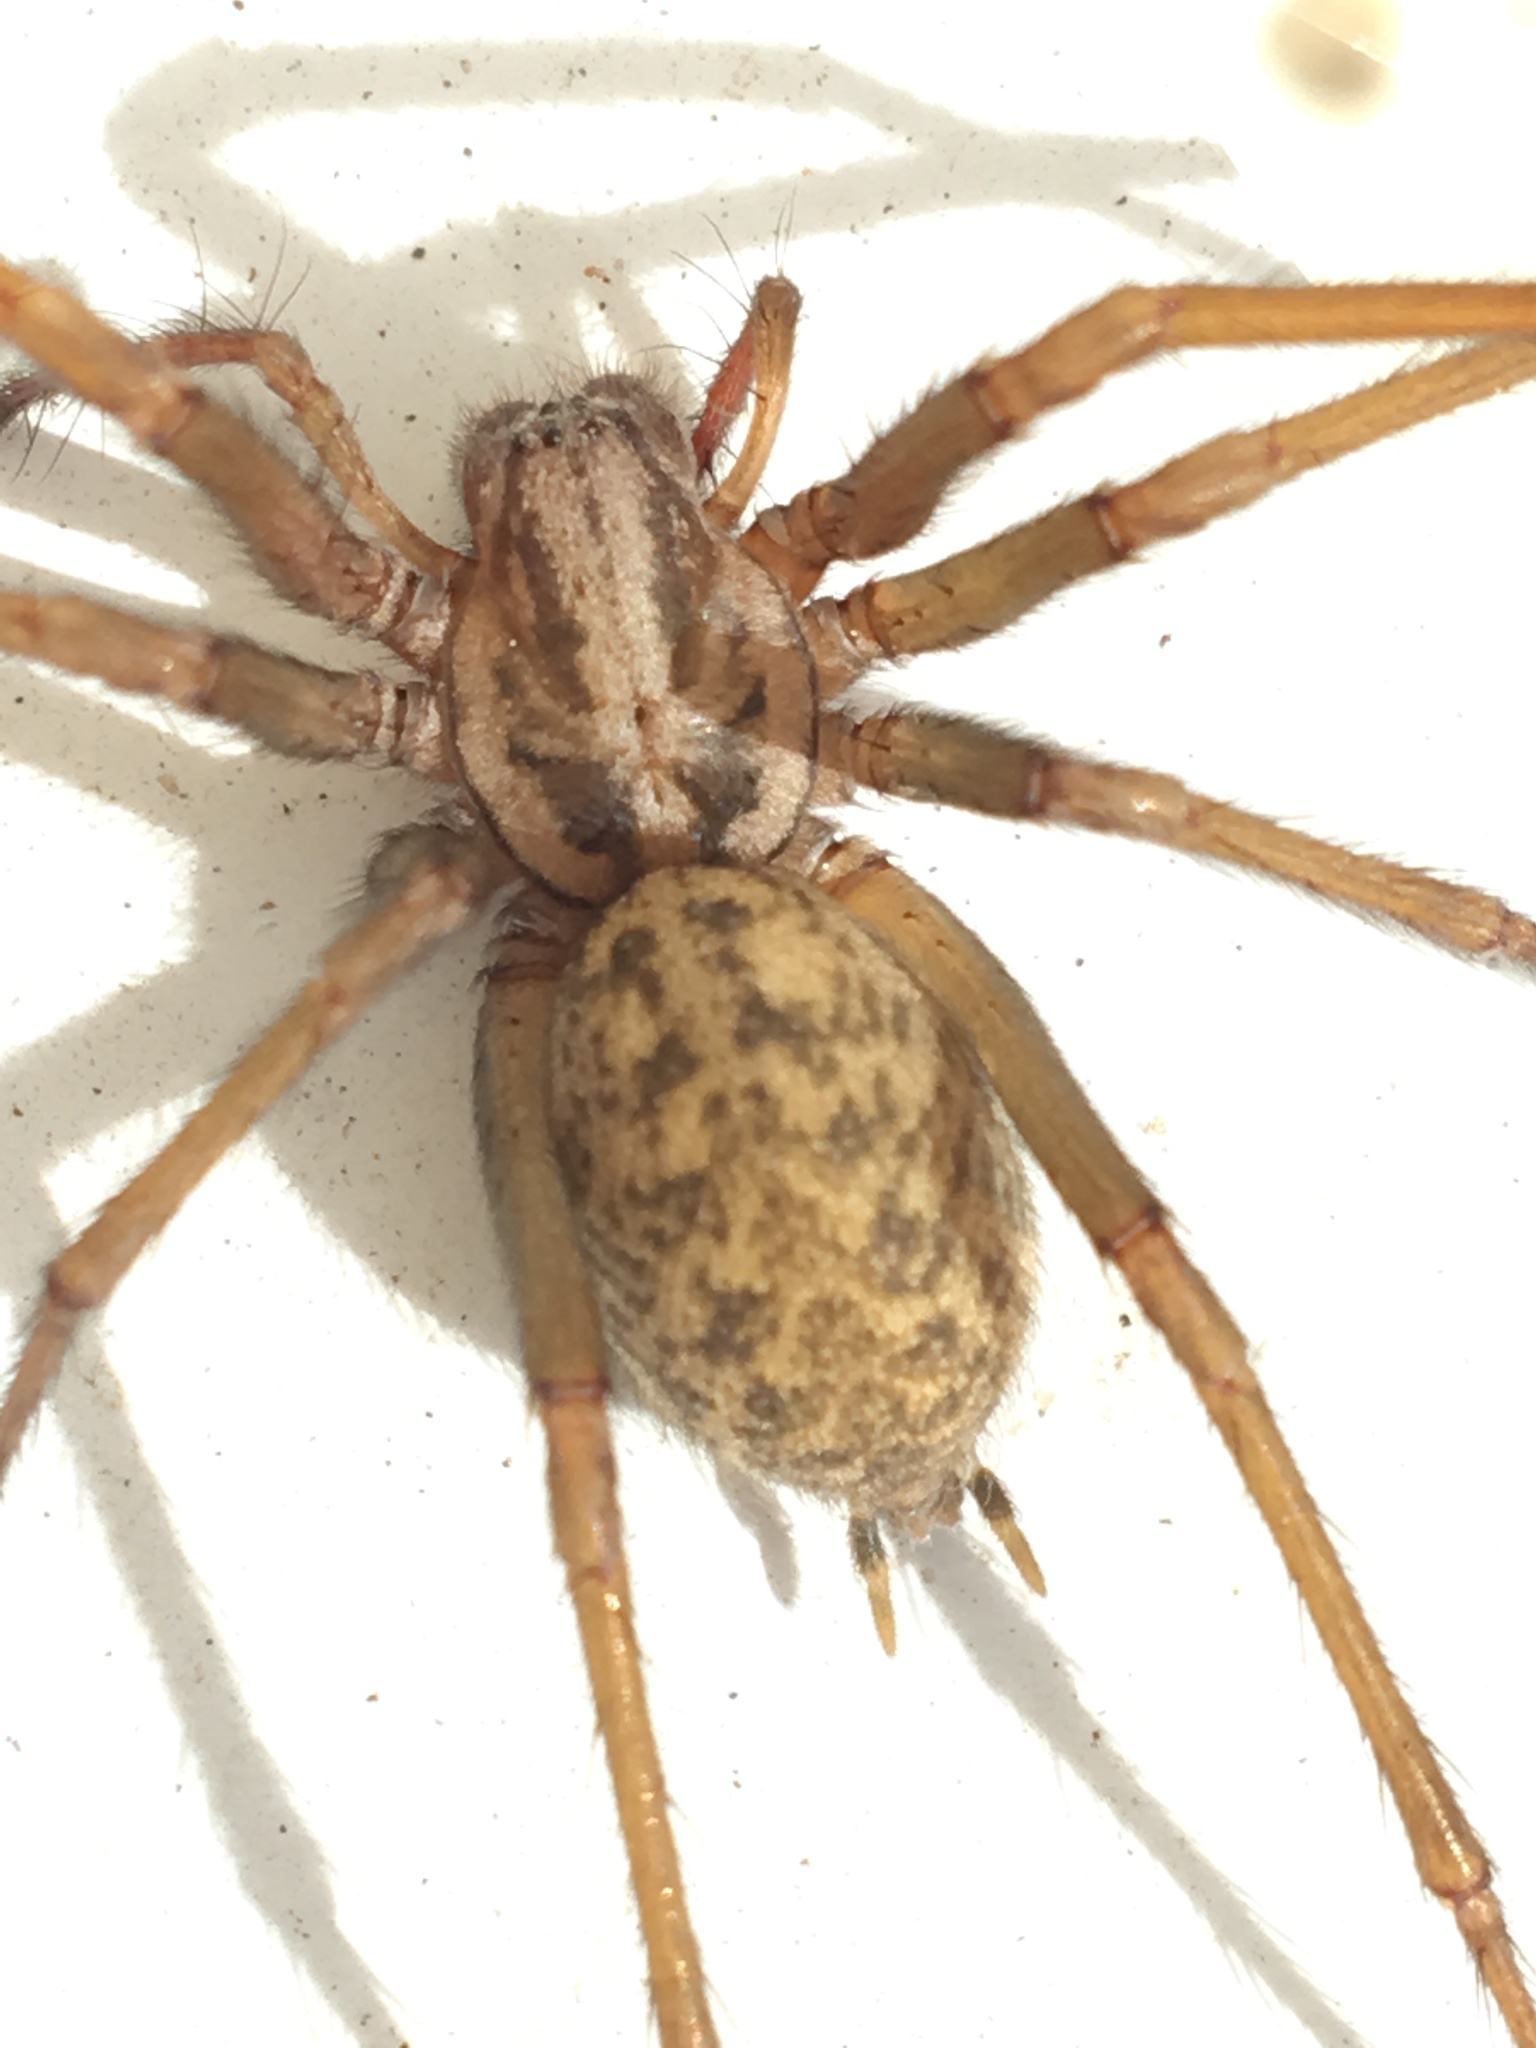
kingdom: Animalia
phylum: Arthropoda
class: Arachnida
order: Araneae
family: Agelenidae
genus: Eratigena
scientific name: Eratigena
